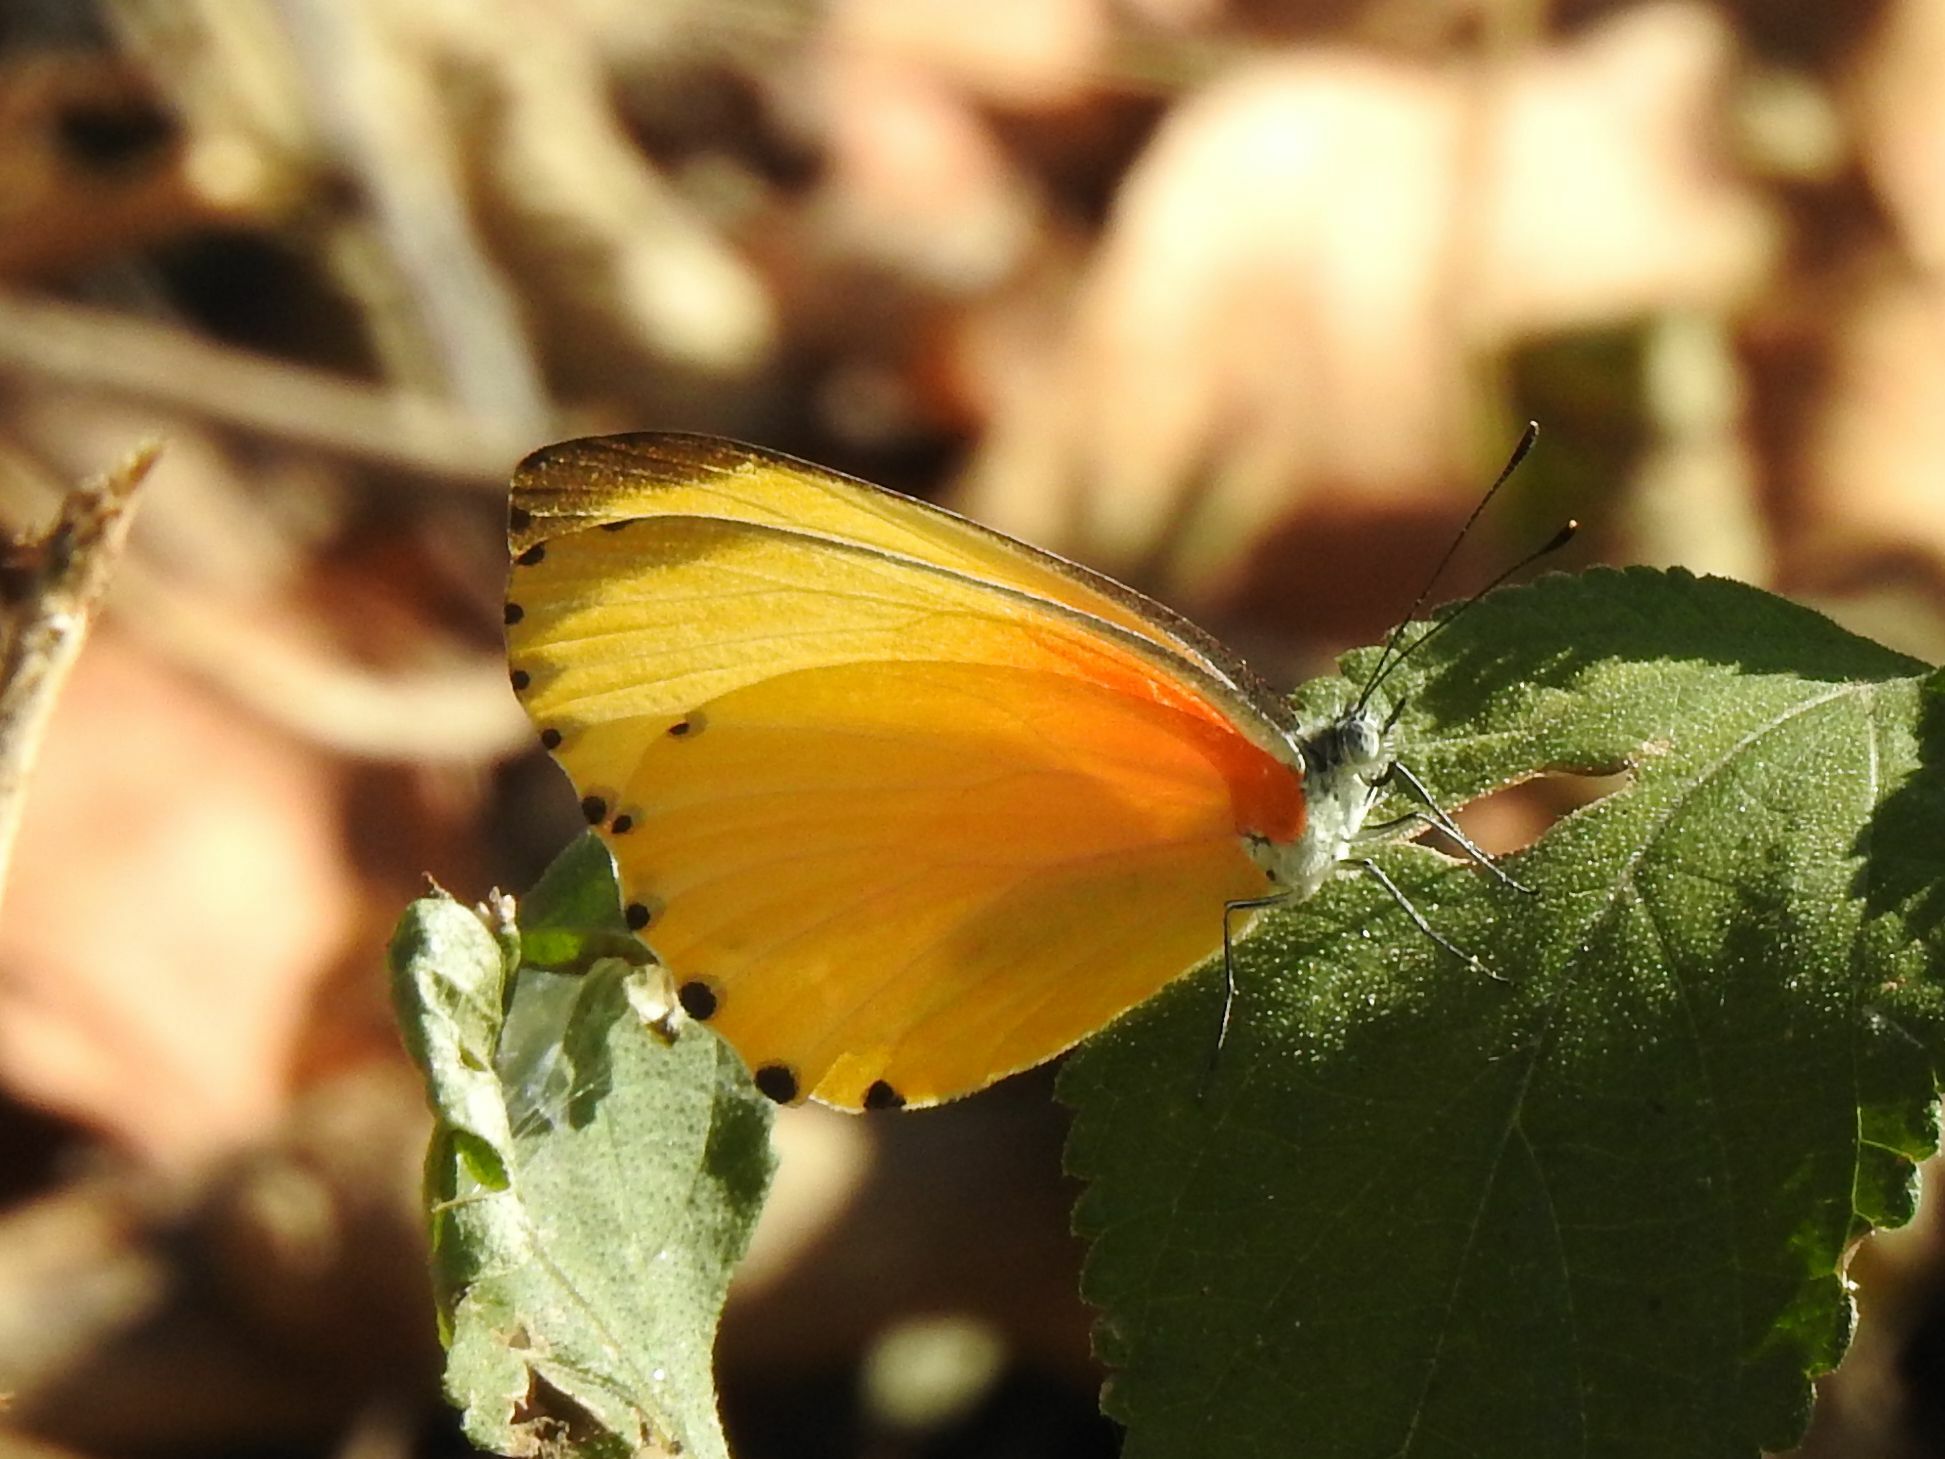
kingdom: Animalia
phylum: Arthropoda
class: Insecta
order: Lepidoptera
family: Pieridae
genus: Mylothris
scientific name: Mylothris agathina
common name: Eastern dotted border
